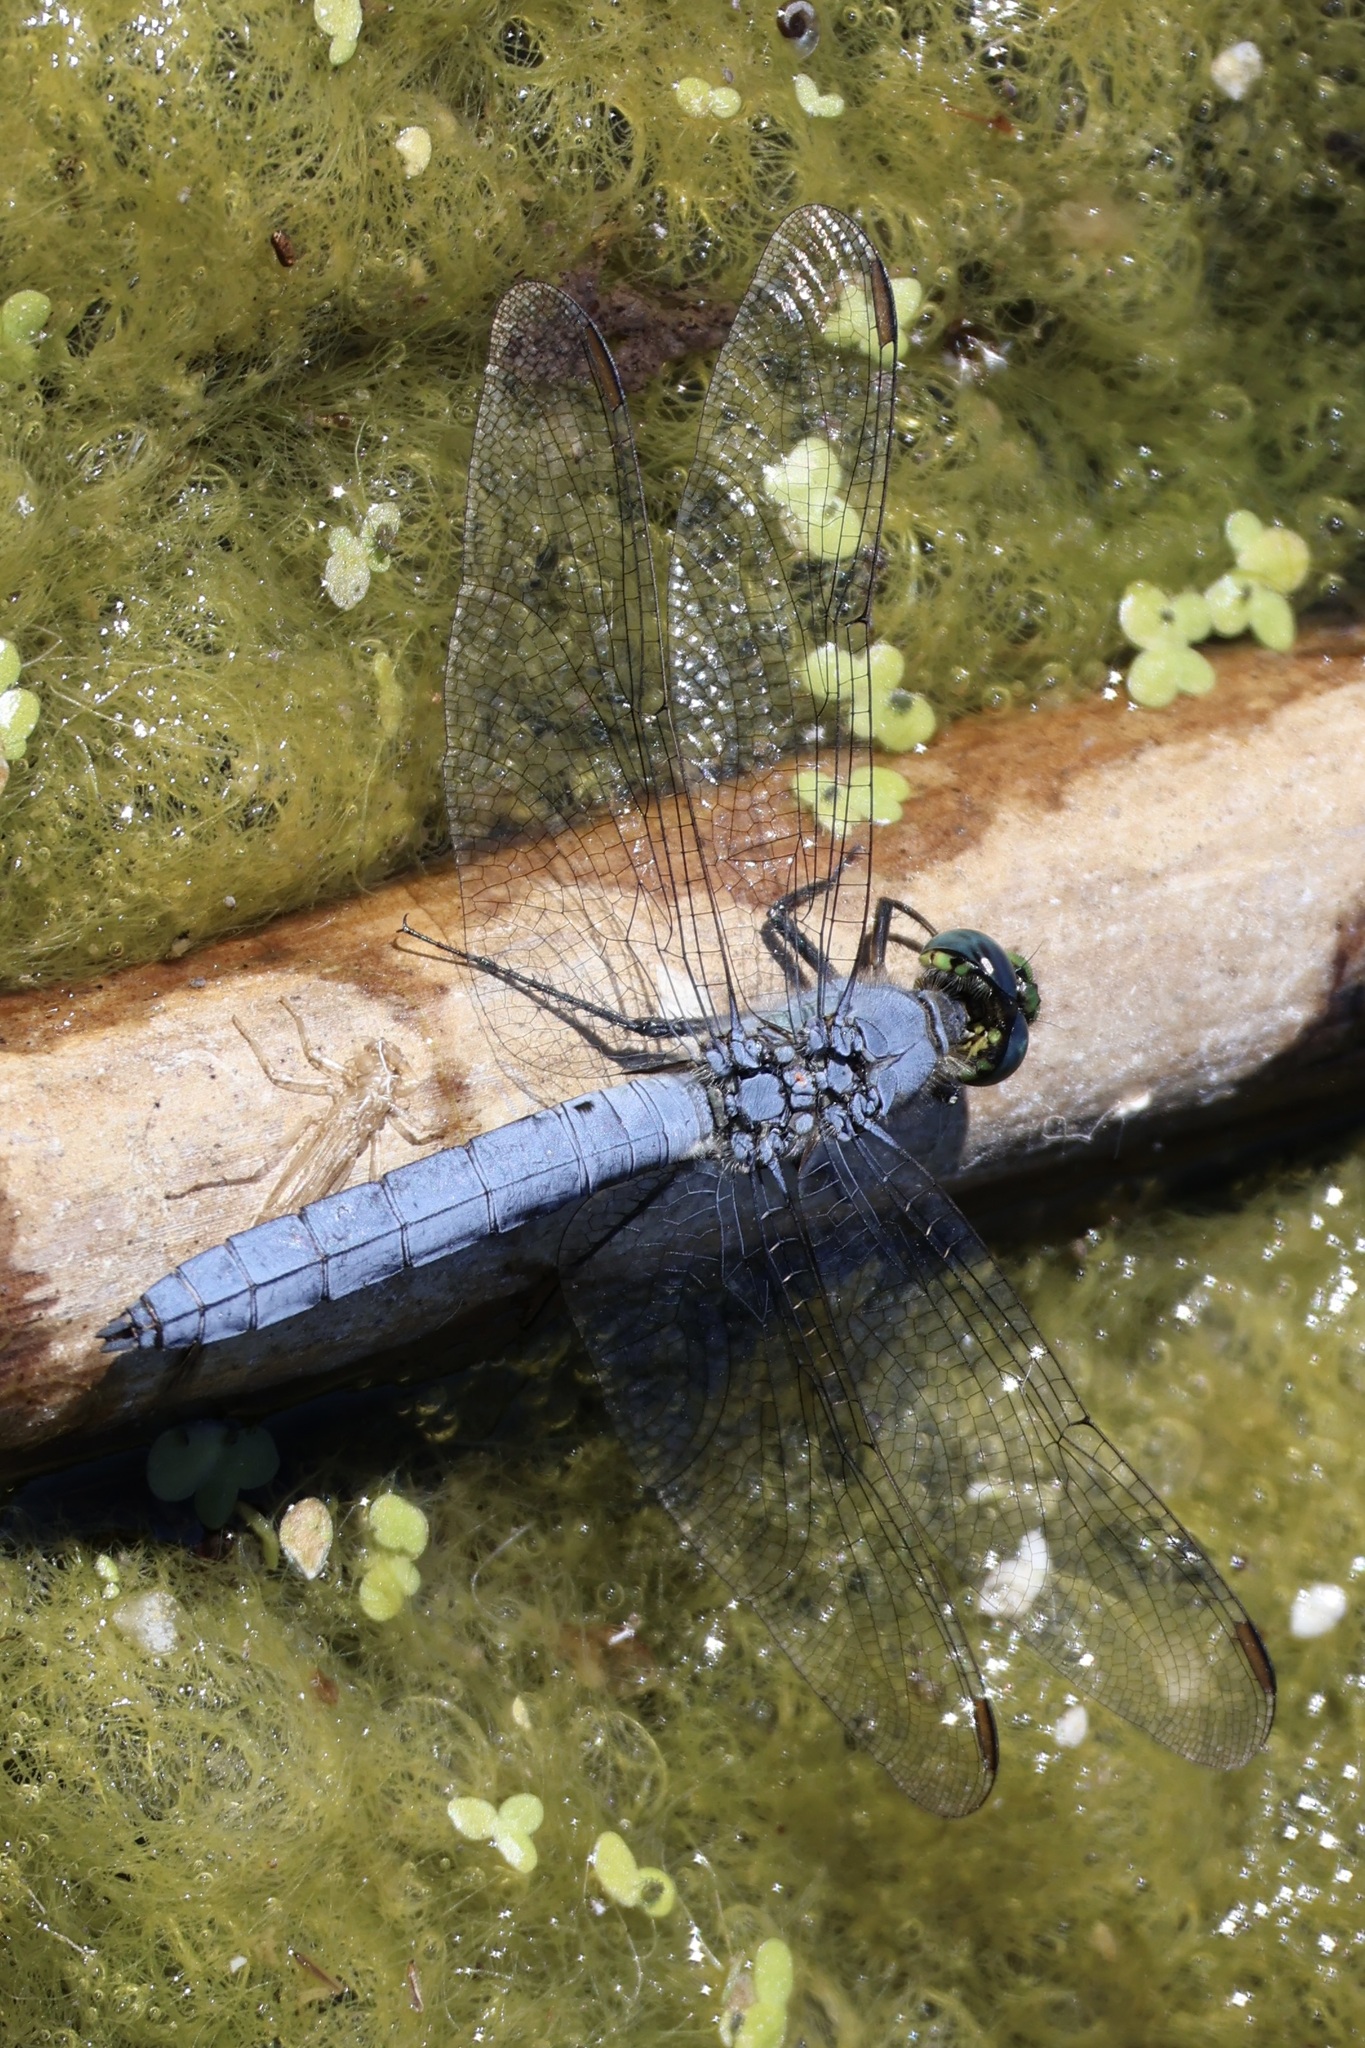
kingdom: Animalia
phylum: Arthropoda
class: Insecta
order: Odonata
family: Libellulidae
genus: Erythemis
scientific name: Erythemis collocata
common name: Western pondhawk
